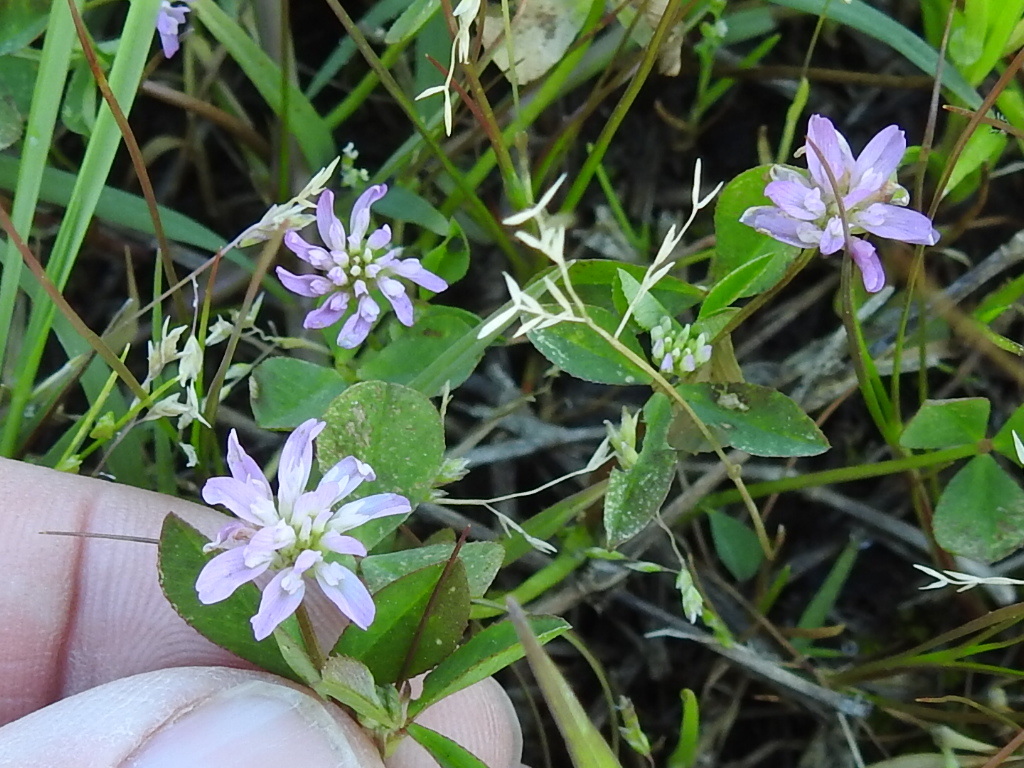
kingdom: Plantae
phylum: Tracheophyta
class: Magnoliopsida
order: Fabales
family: Fabaceae
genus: Trifolium
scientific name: Trifolium resupinatum
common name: Reversed clover
